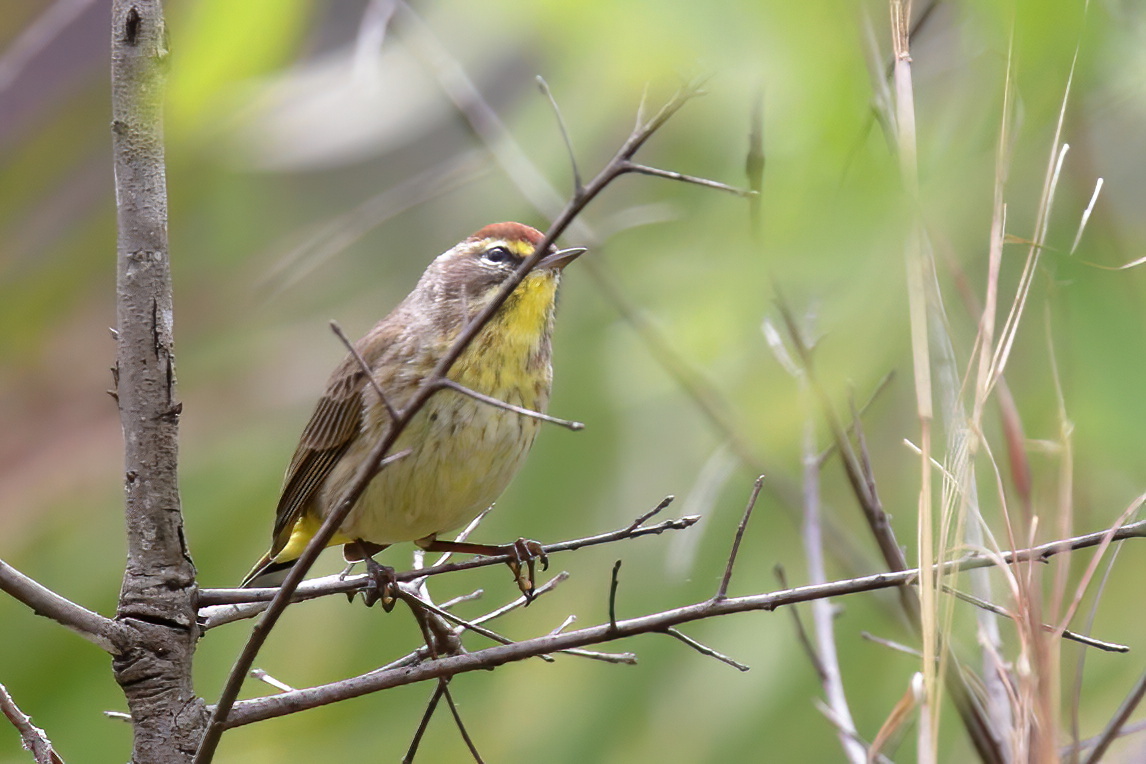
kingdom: Animalia
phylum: Chordata
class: Aves
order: Passeriformes
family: Parulidae
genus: Setophaga
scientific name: Setophaga palmarum
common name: Palm warbler
